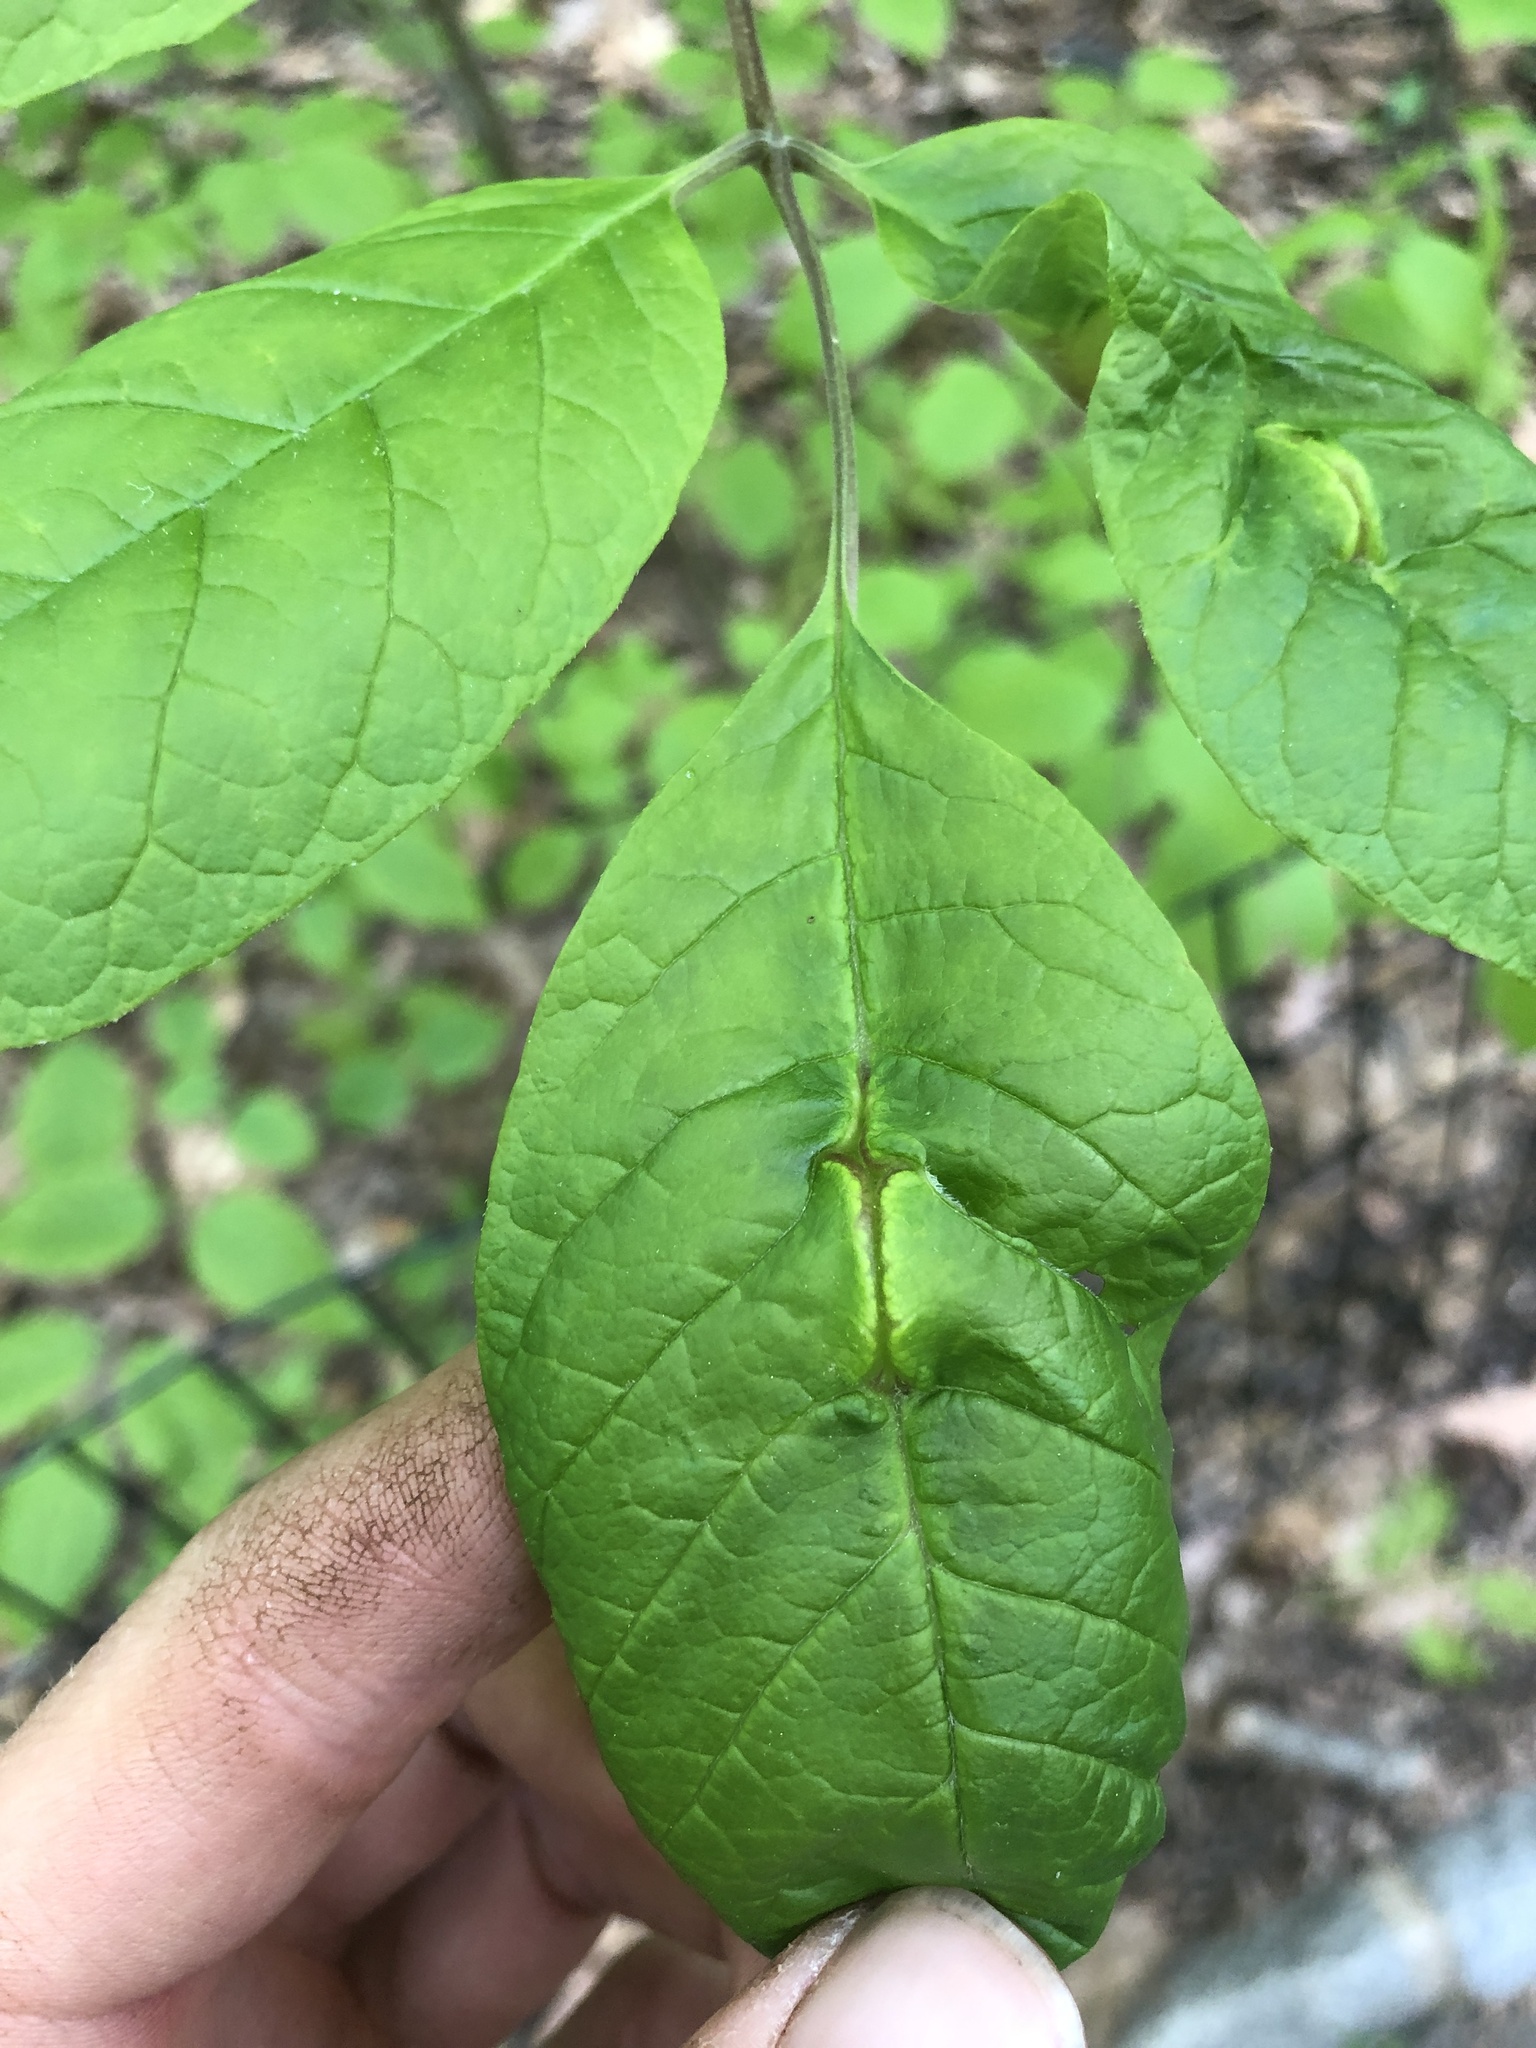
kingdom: Animalia
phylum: Arthropoda
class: Insecta
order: Diptera
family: Cecidomyiidae
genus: Dasineura
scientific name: Dasineura tumidosae
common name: Ash petiole gall midge
